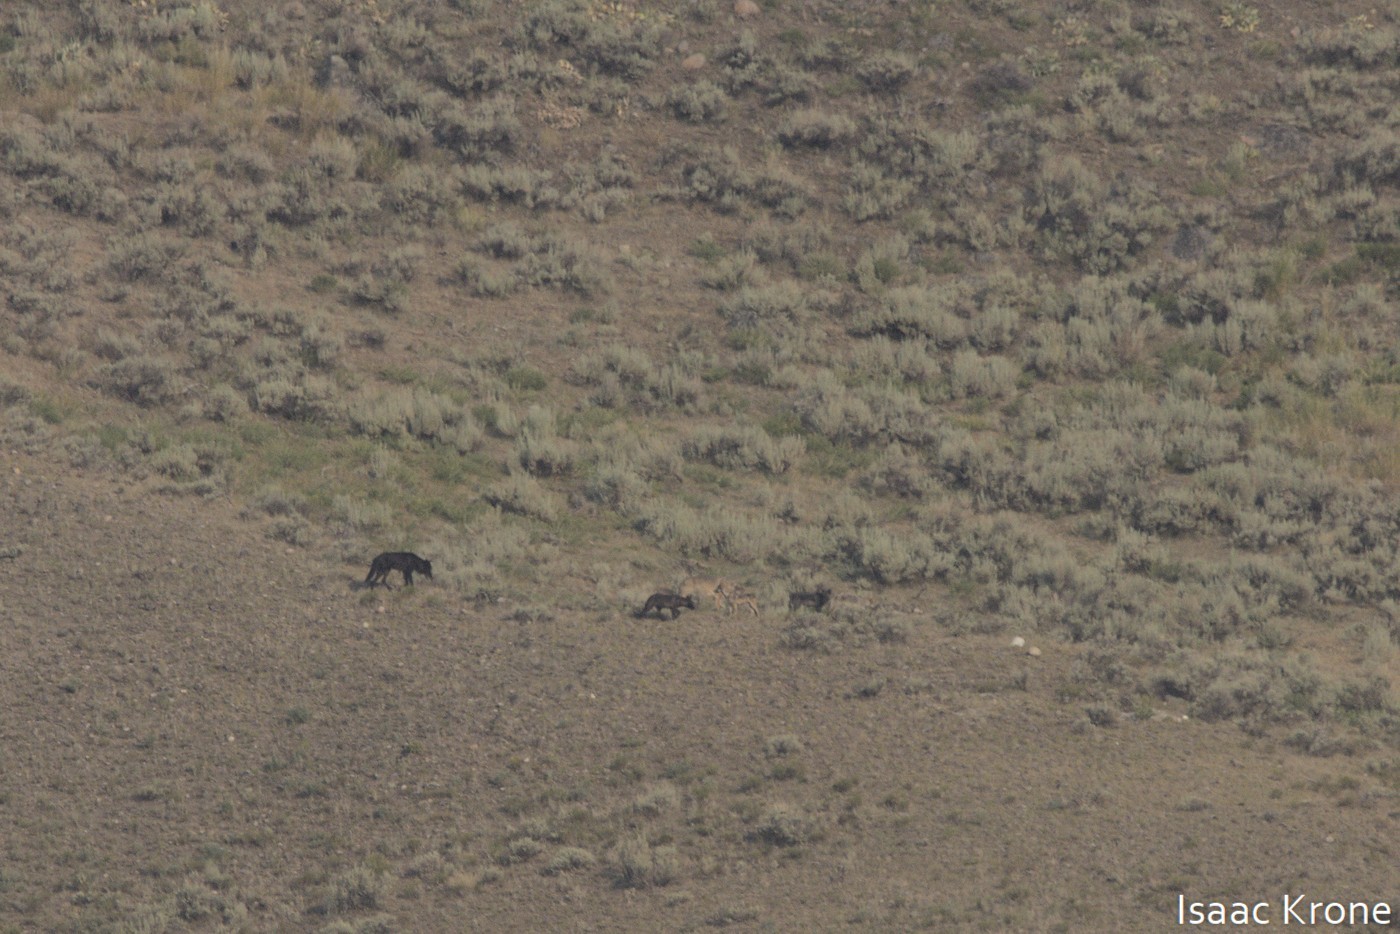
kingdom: Animalia
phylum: Chordata
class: Mammalia
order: Carnivora
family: Canidae
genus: Canis
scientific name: Canis lupus
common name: Gray wolf
